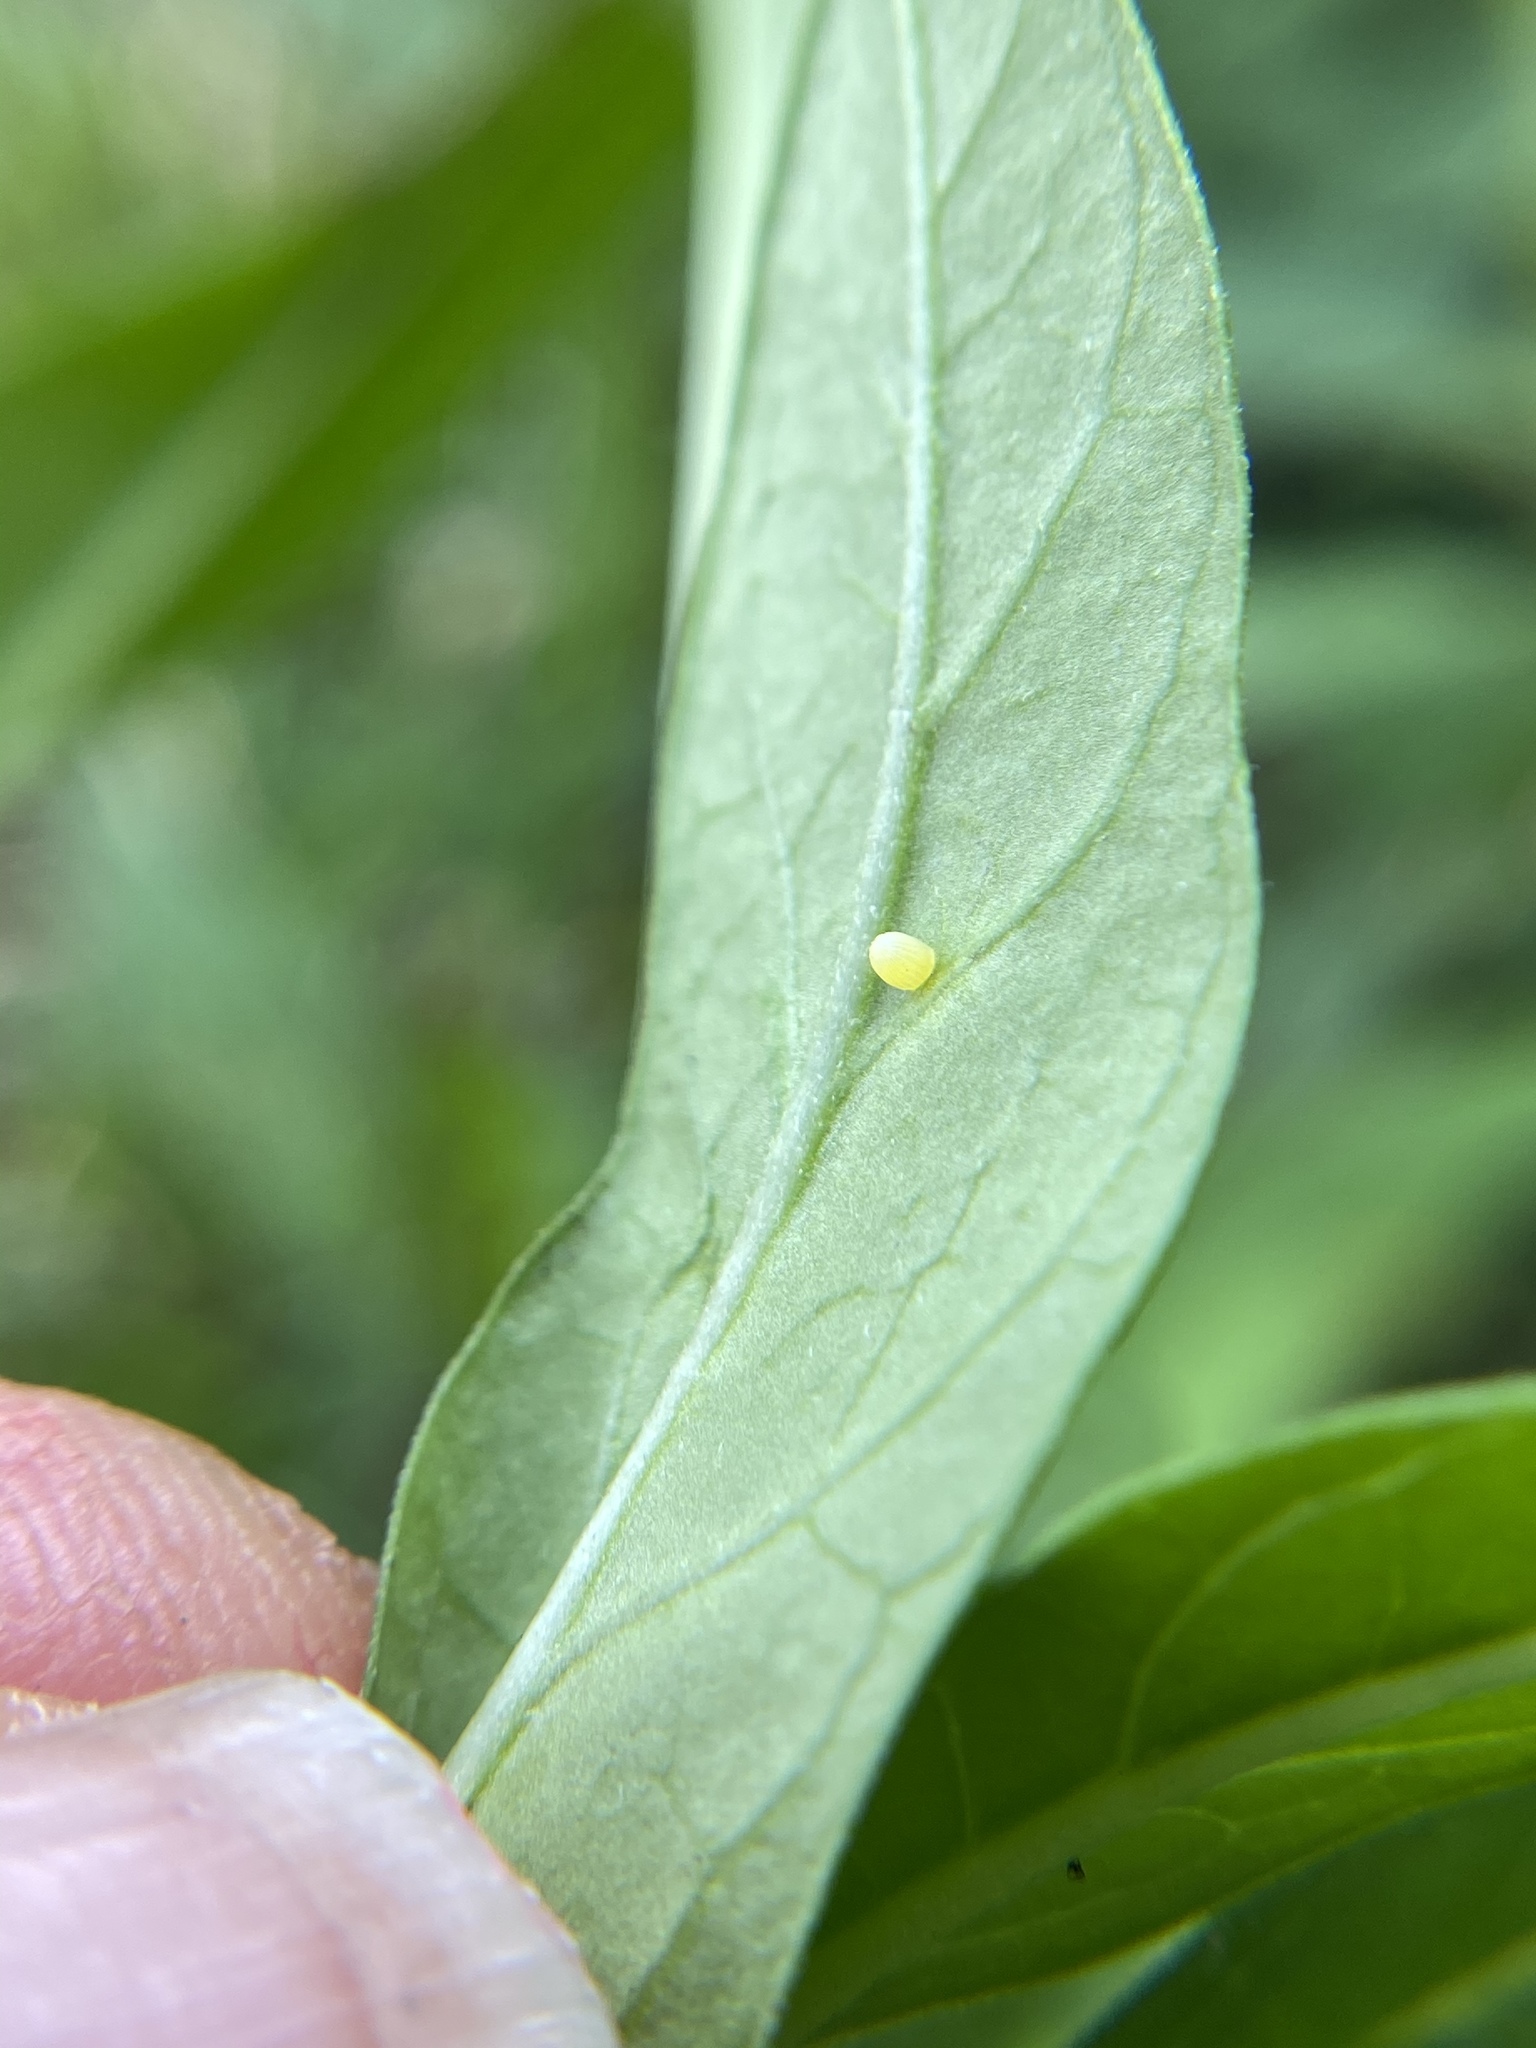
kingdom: Animalia
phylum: Arthropoda
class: Insecta
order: Lepidoptera
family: Nymphalidae
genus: Danaus
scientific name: Danaus plexippus
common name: Monarch
